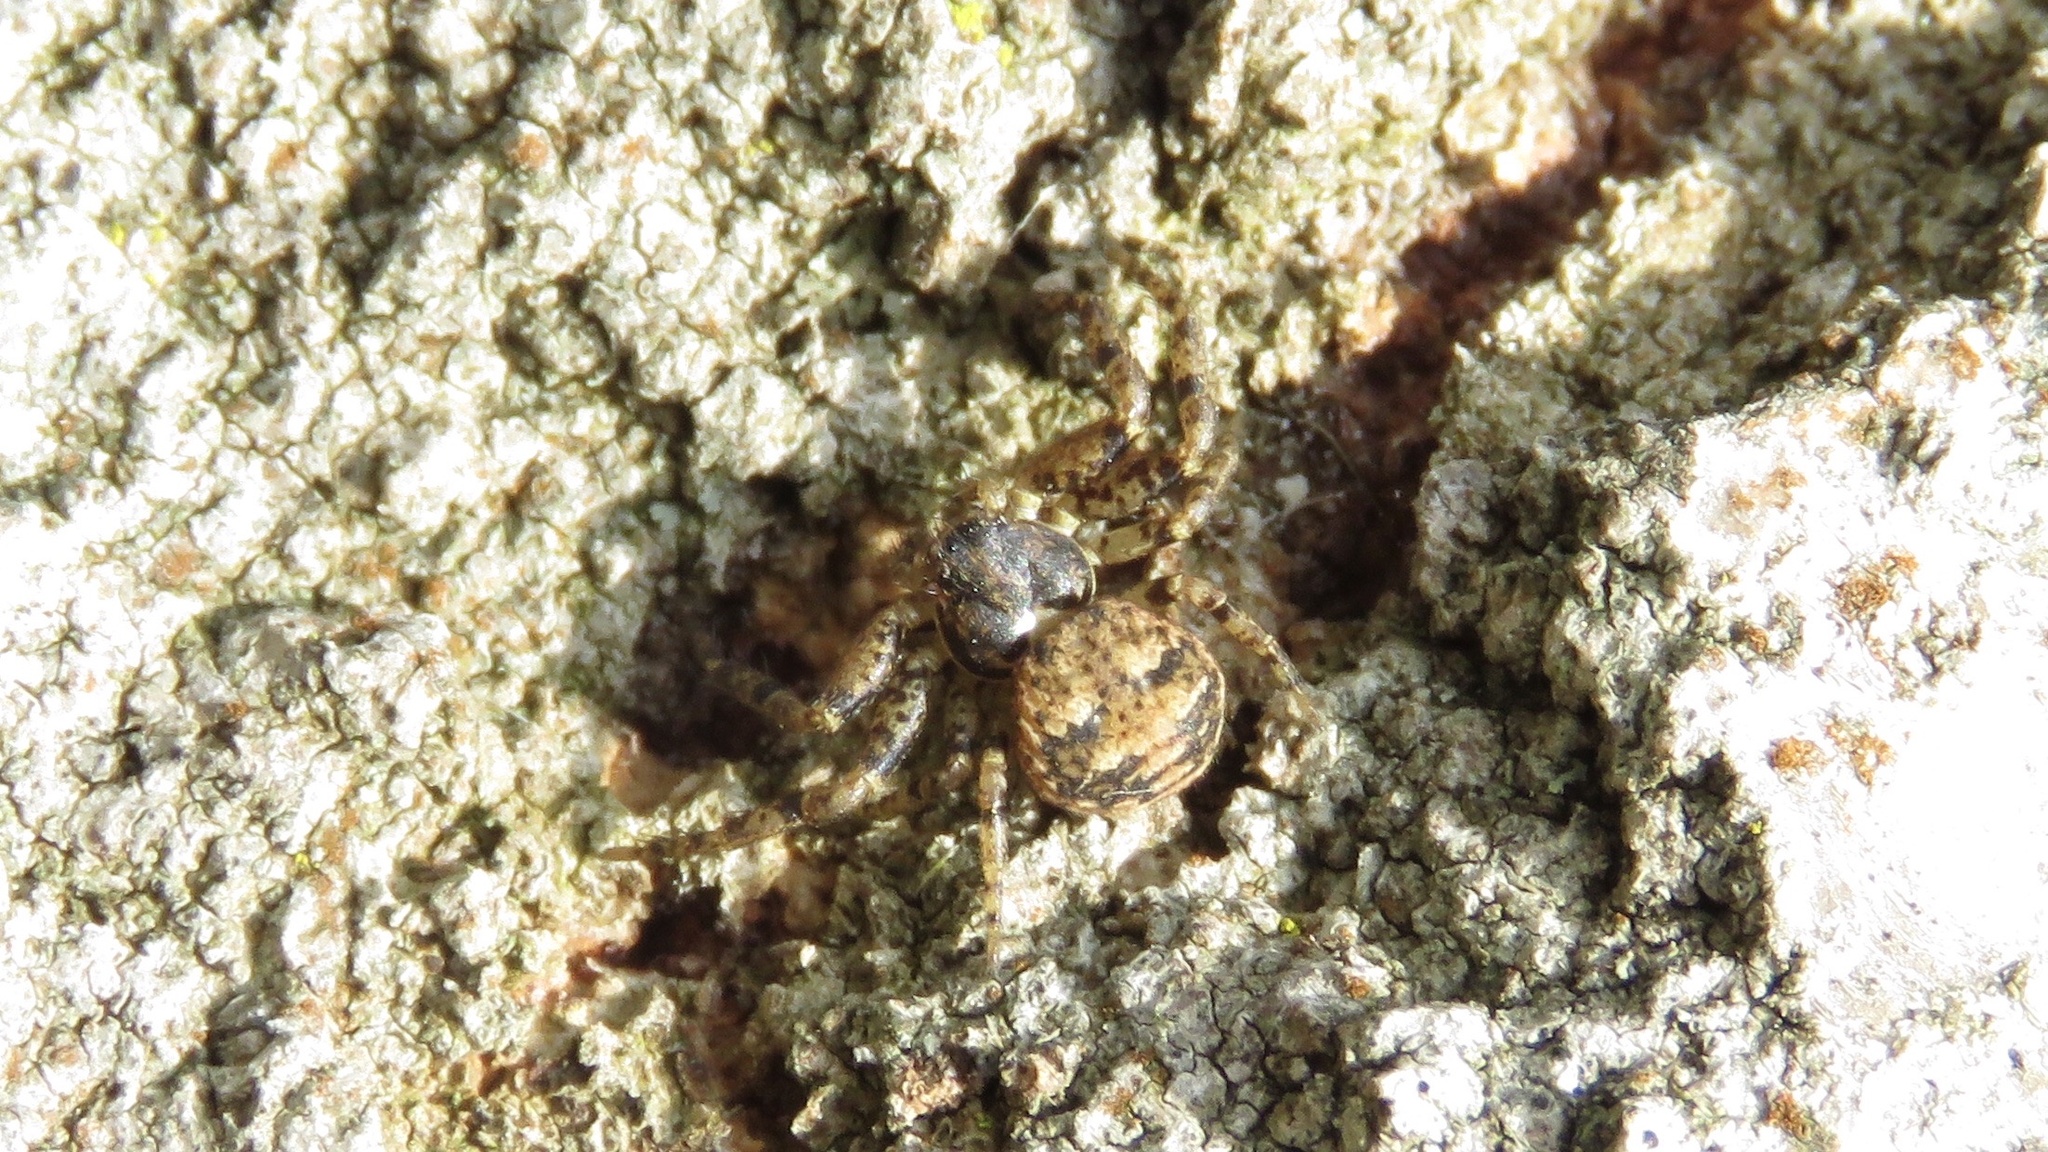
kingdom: Animalia
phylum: Arthropoda
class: Arachnida
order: Araneae
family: Thomisidae
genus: Bassaniana
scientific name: Bassaniana versicolor
